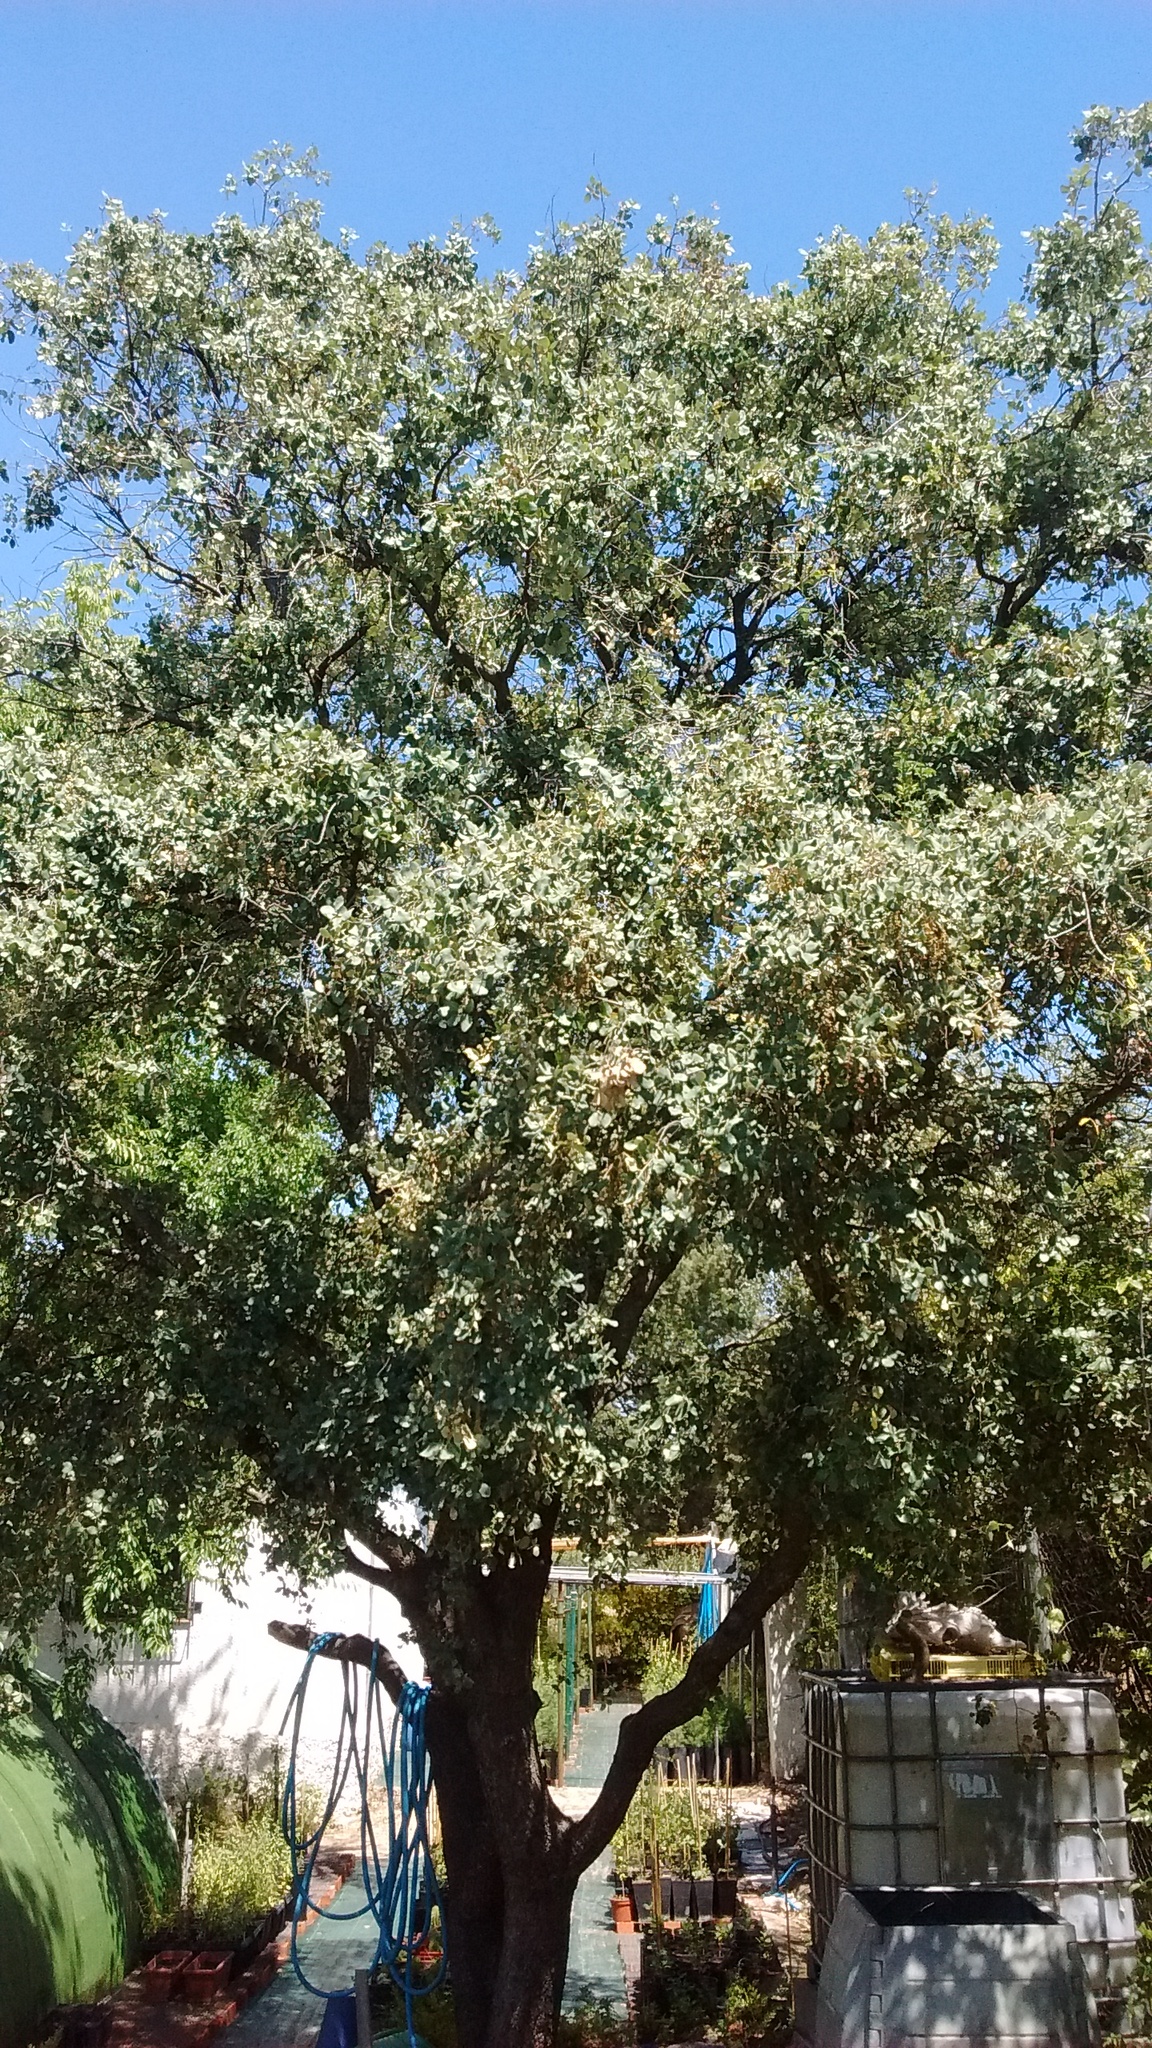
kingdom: Plantae
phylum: Tracheophyta
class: Magnoliopsida
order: Fagales
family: Fagaceae
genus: Quercus
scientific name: Quercus rotundifolia
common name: Holm oak
